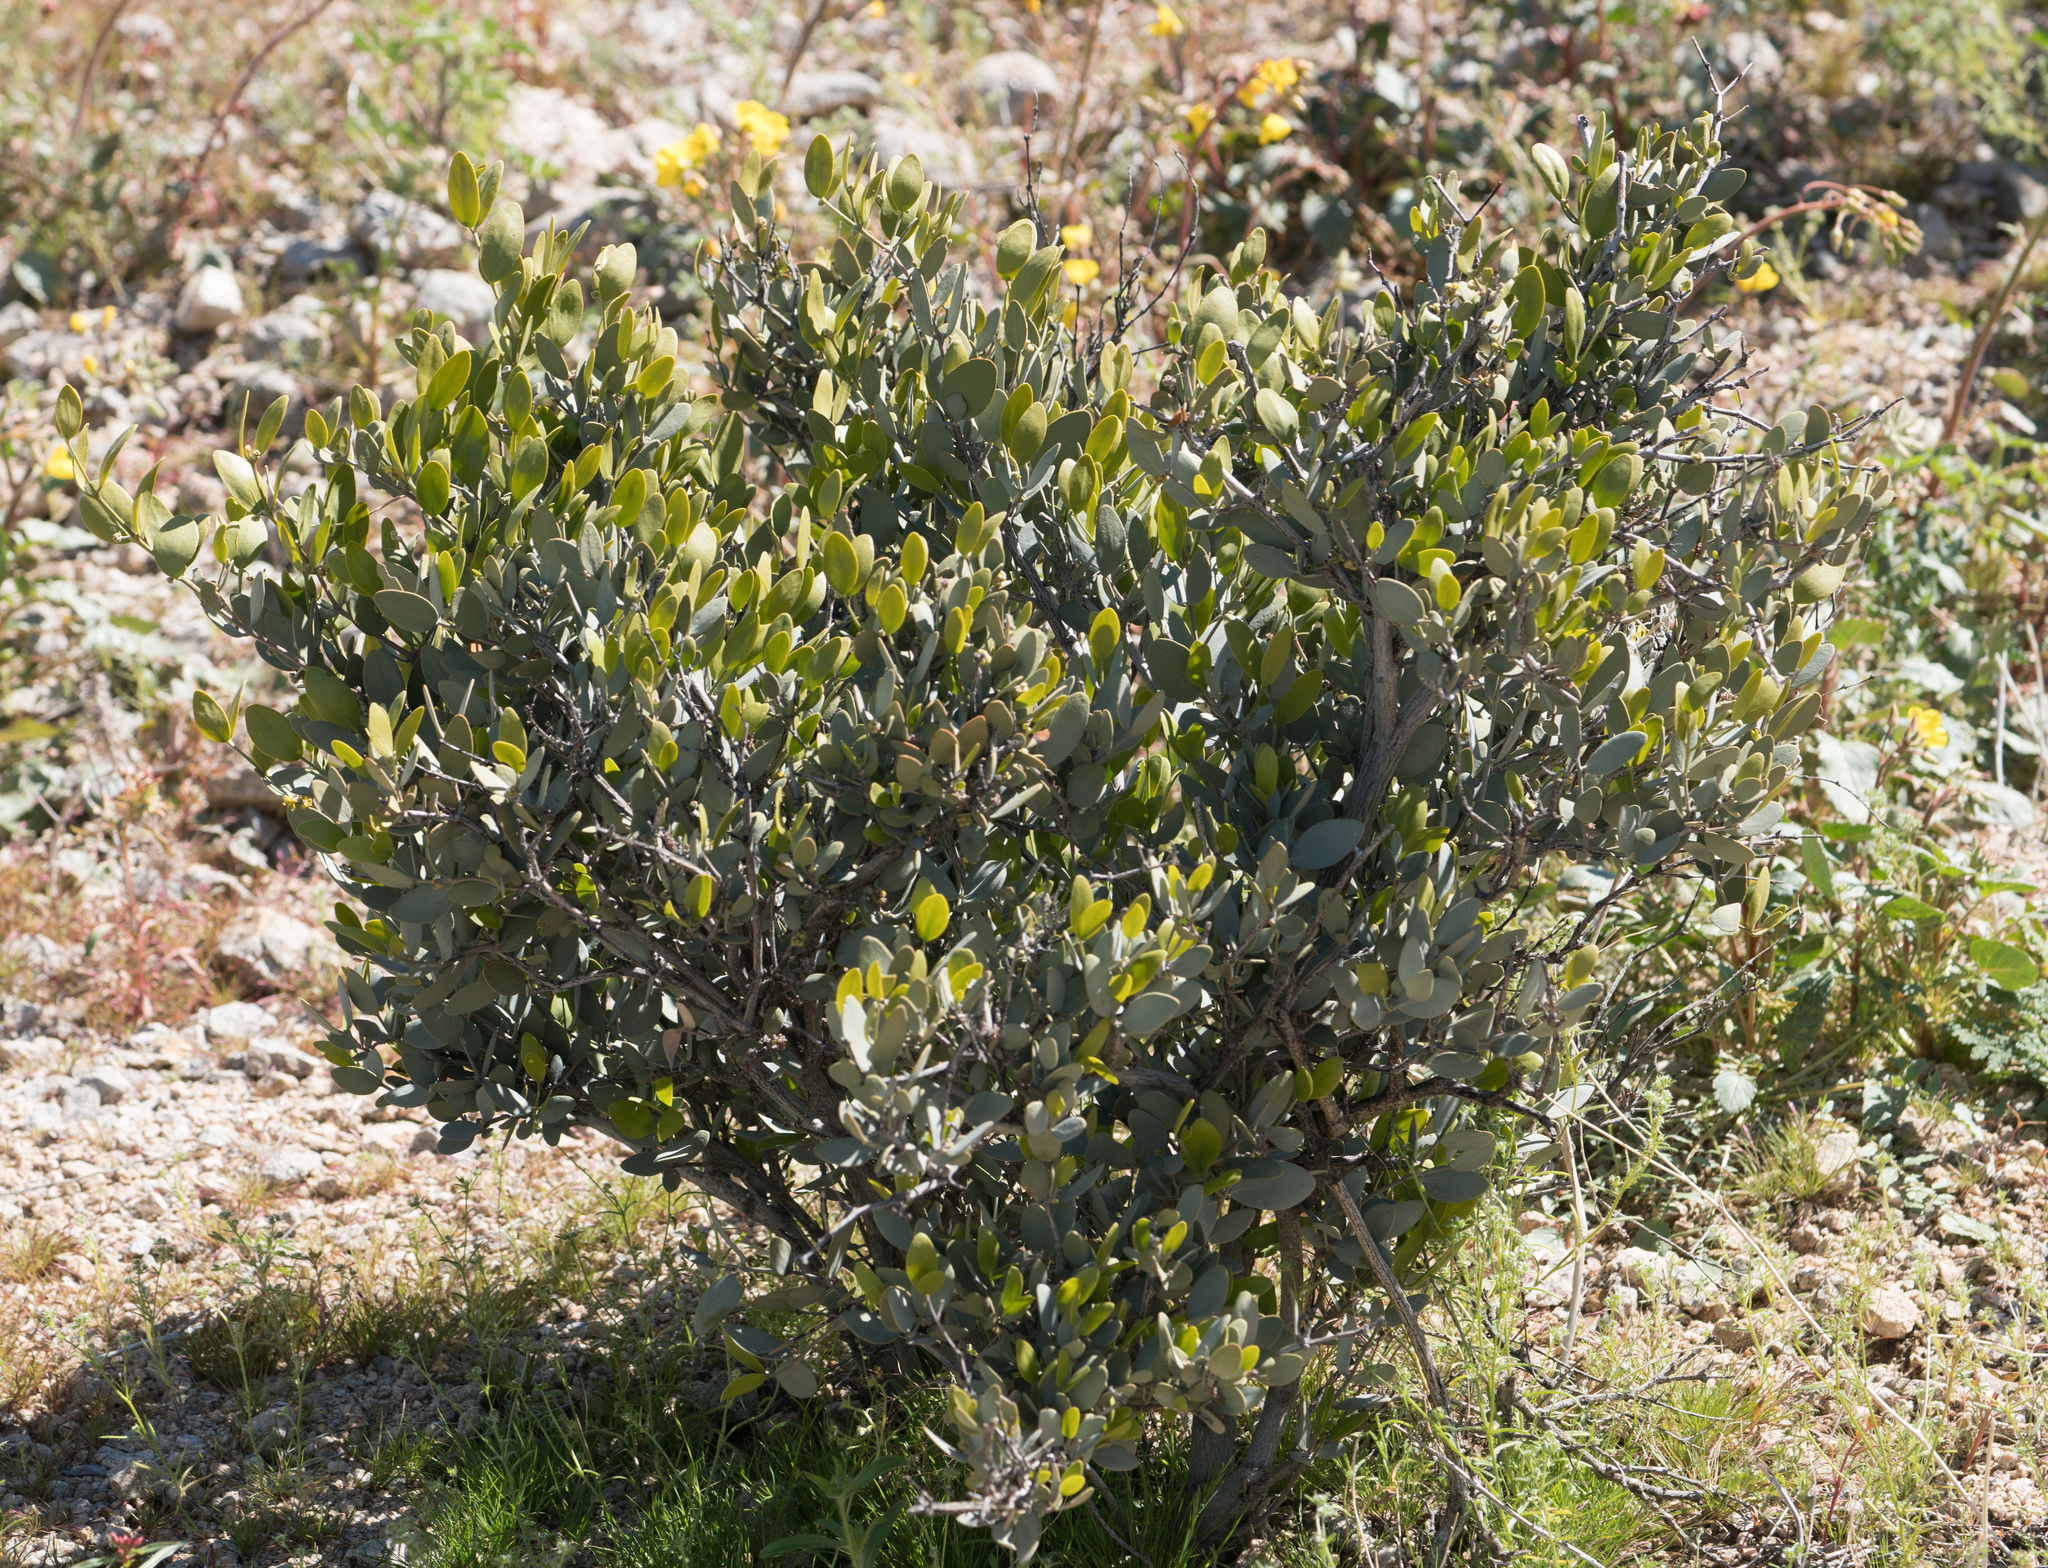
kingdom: Plantae
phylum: Tracheophyta
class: Magnoliopsida
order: Caryophyllales
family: Simmondsiaceae
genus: Simmondsia
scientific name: Simmondsia chinensis
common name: Jojoba
